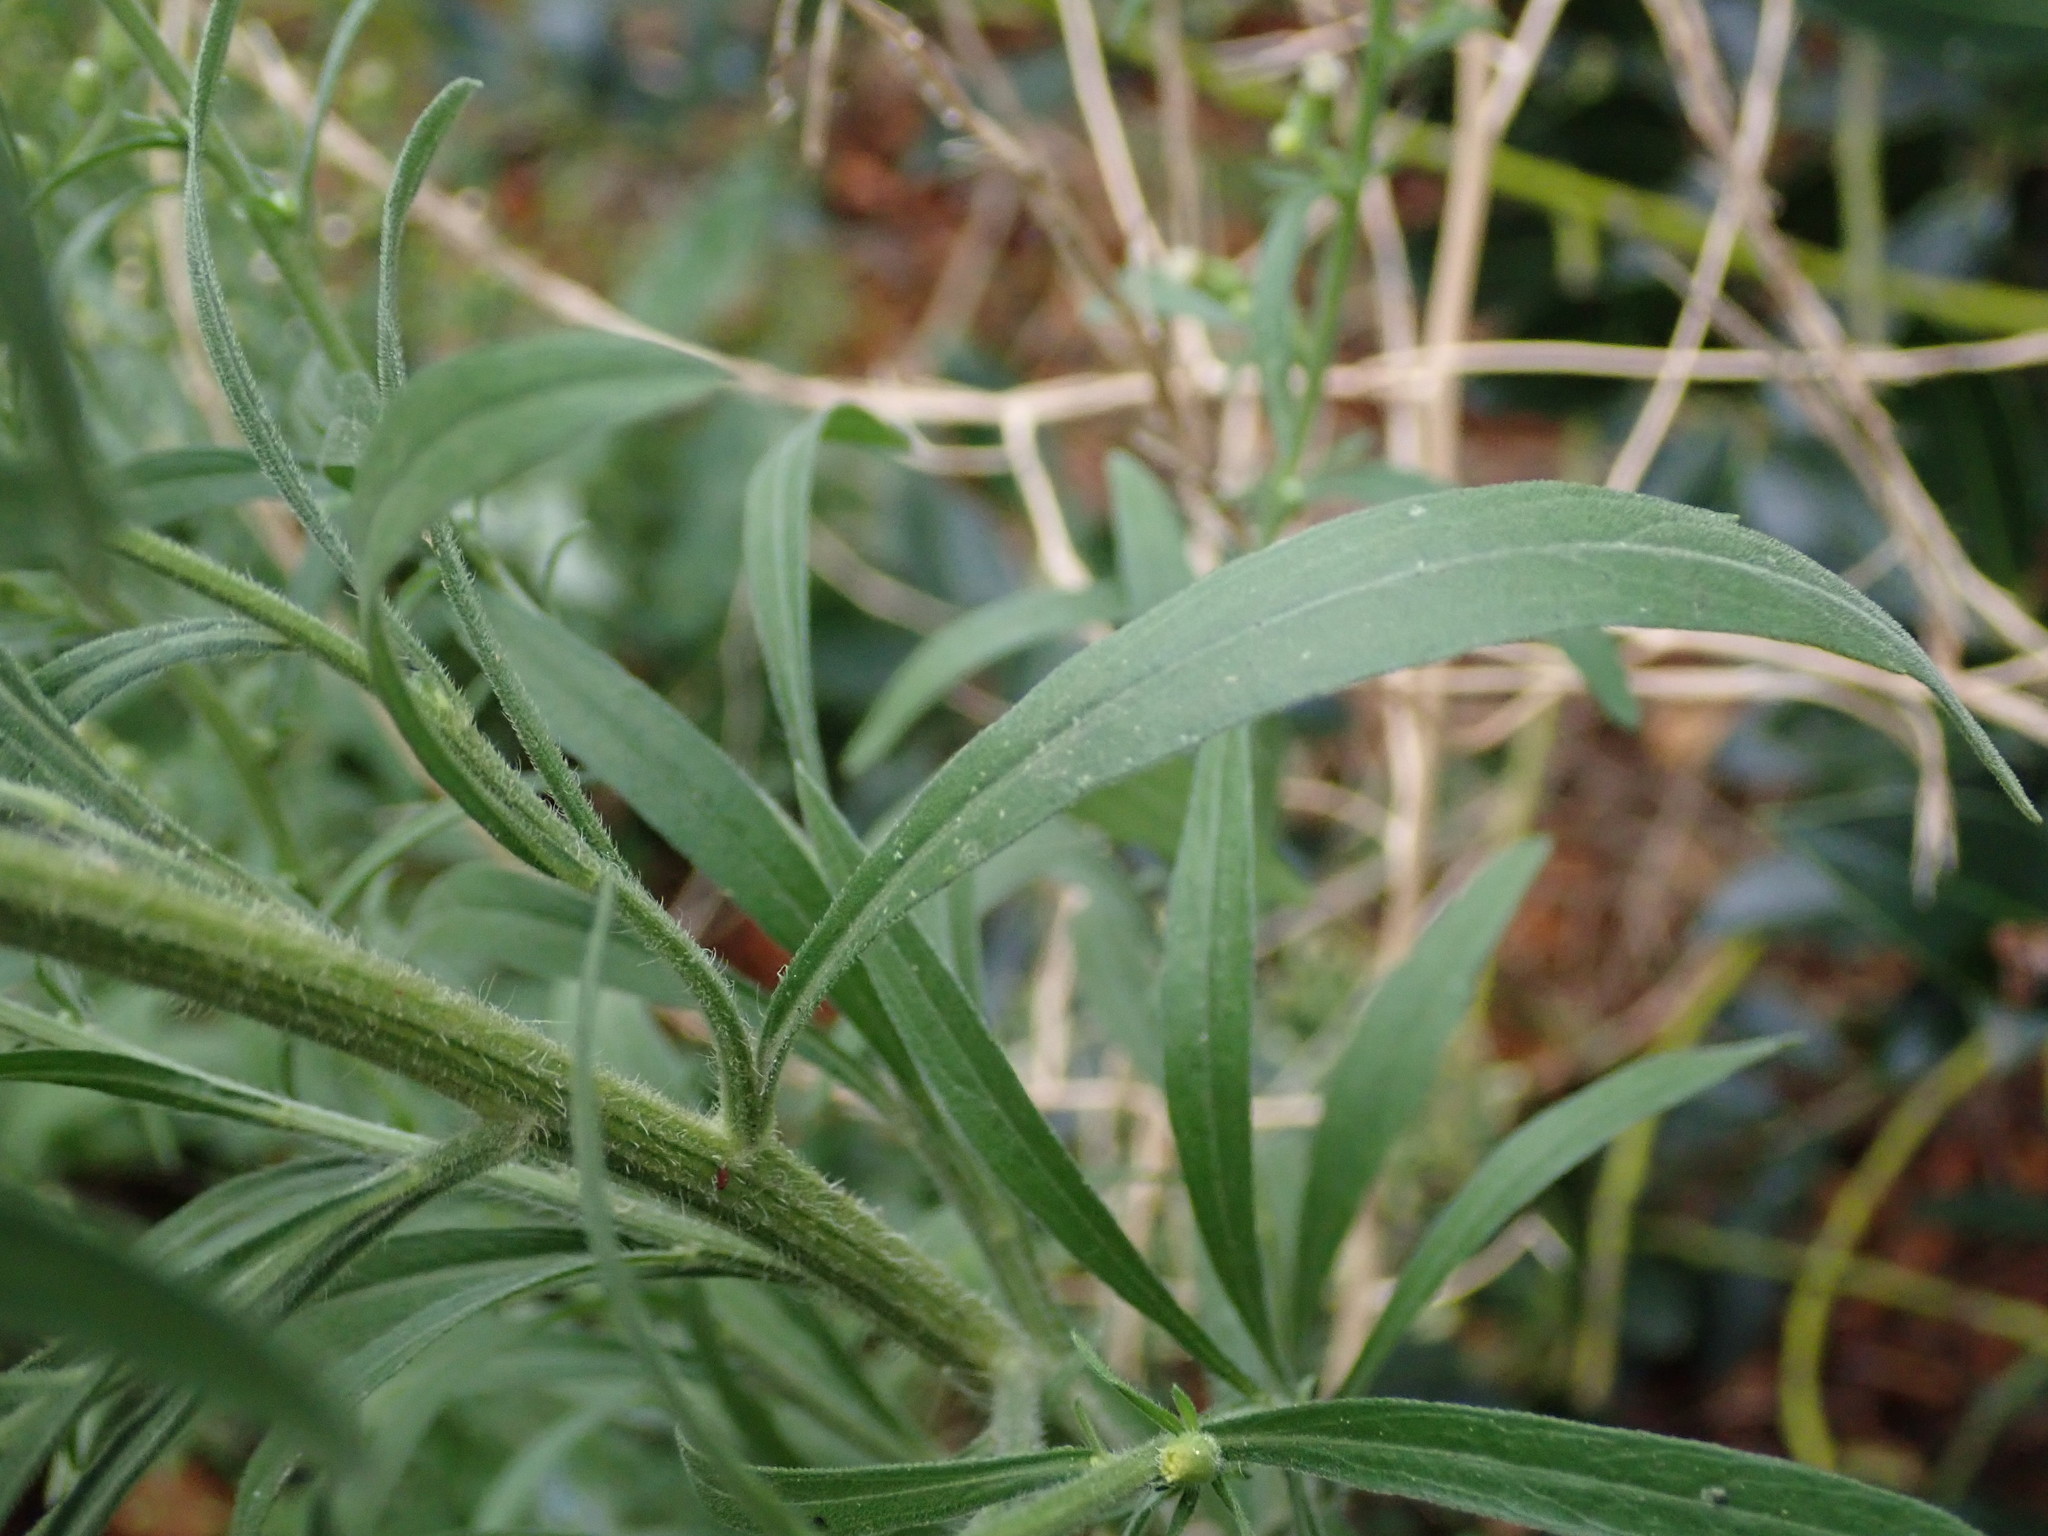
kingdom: Plantae
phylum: Tracheophyta
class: Magnoliopsida
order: Asterales
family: Asteraceae
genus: Erigeron
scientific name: Erigeron sumatrensis
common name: Daisy
